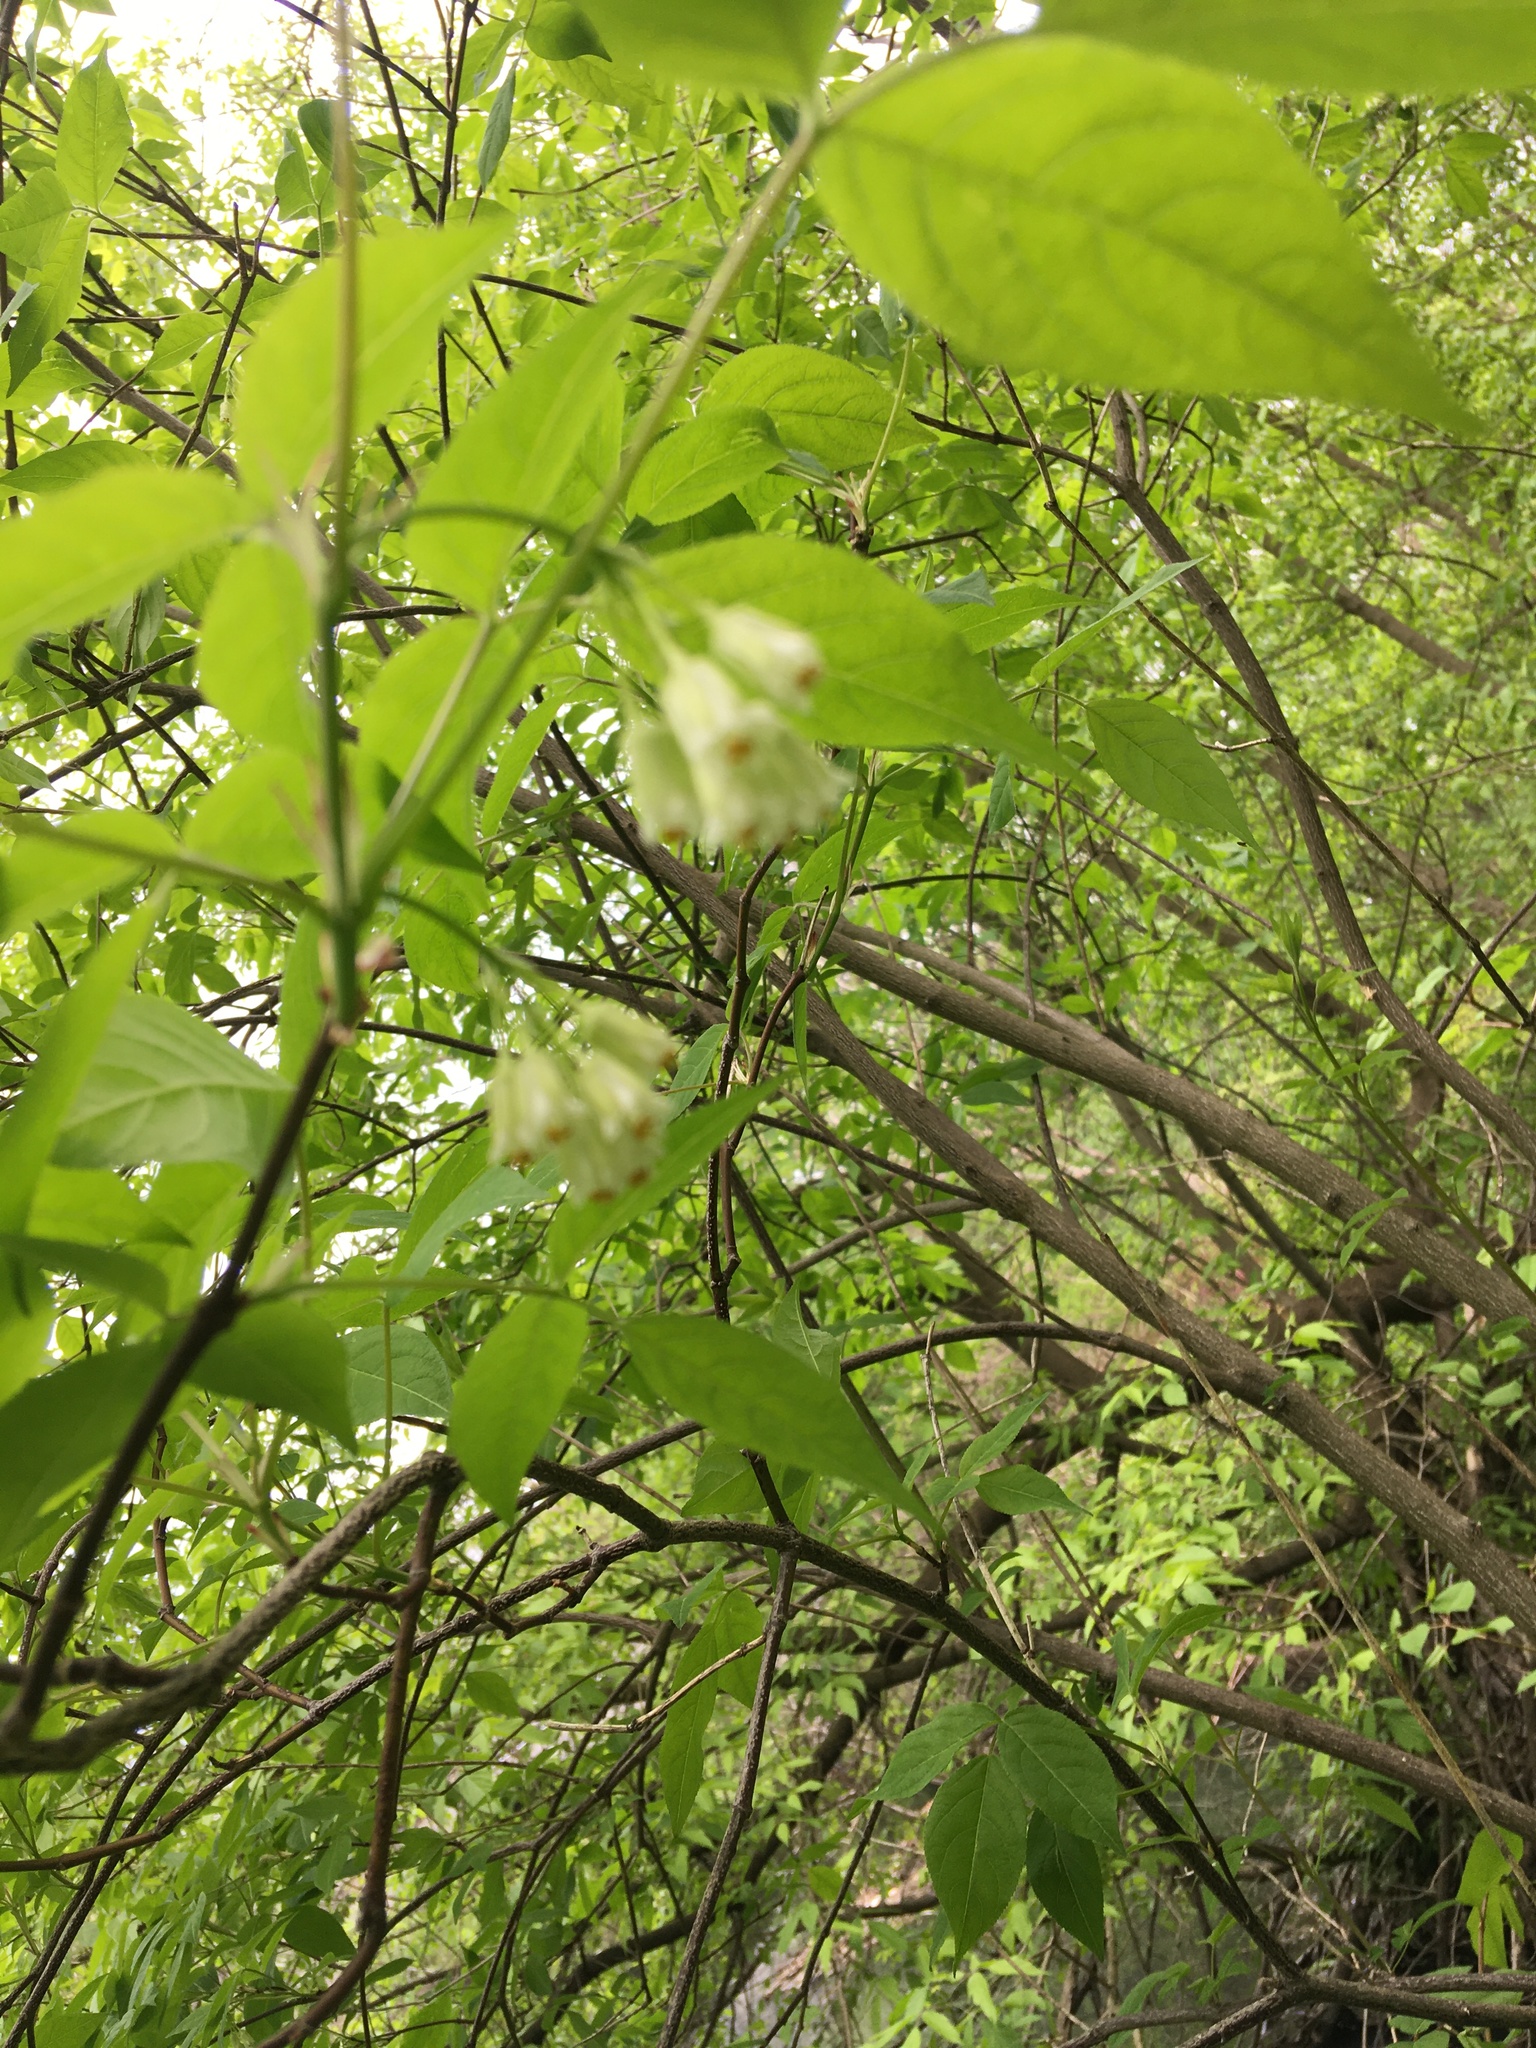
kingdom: Plantae
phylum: Tracheophyta
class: Magnoliopsida
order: Crossosomatales
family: Staphyleaceae
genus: Staphylea
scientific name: Staphylea trifolia
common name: American bladdernut
